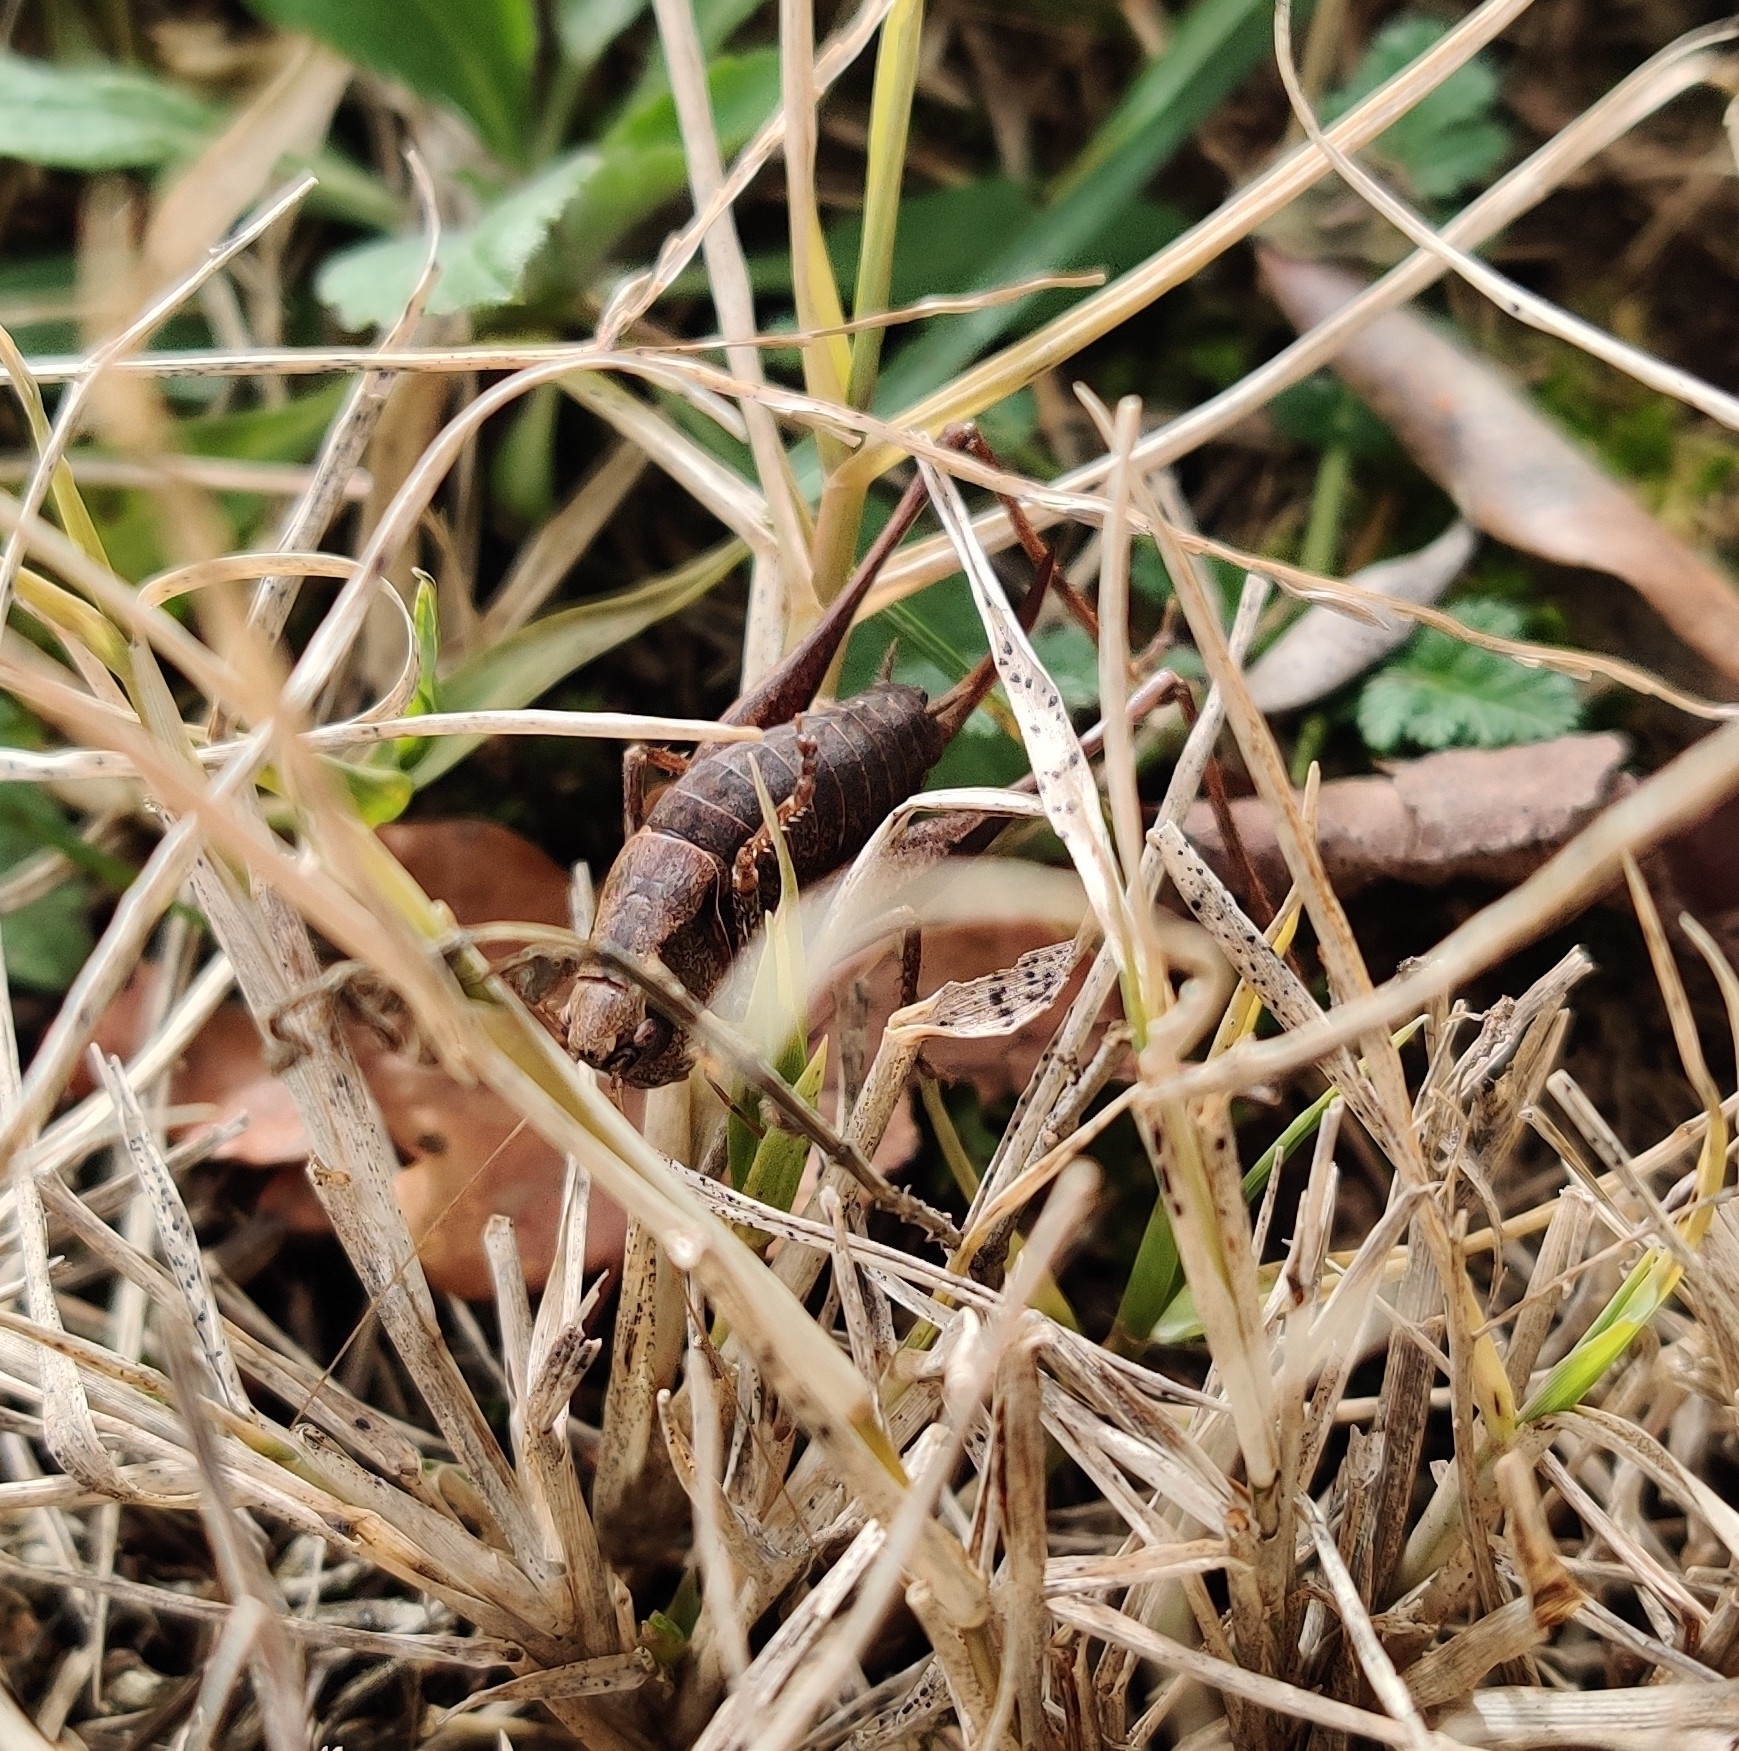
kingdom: Animalia
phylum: Arthropoda
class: Insecta
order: Orthoptera
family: Tettigoniidae
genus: Pholidoptera
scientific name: Pholidoptera griseoaptera
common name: Dark bush-cricket
